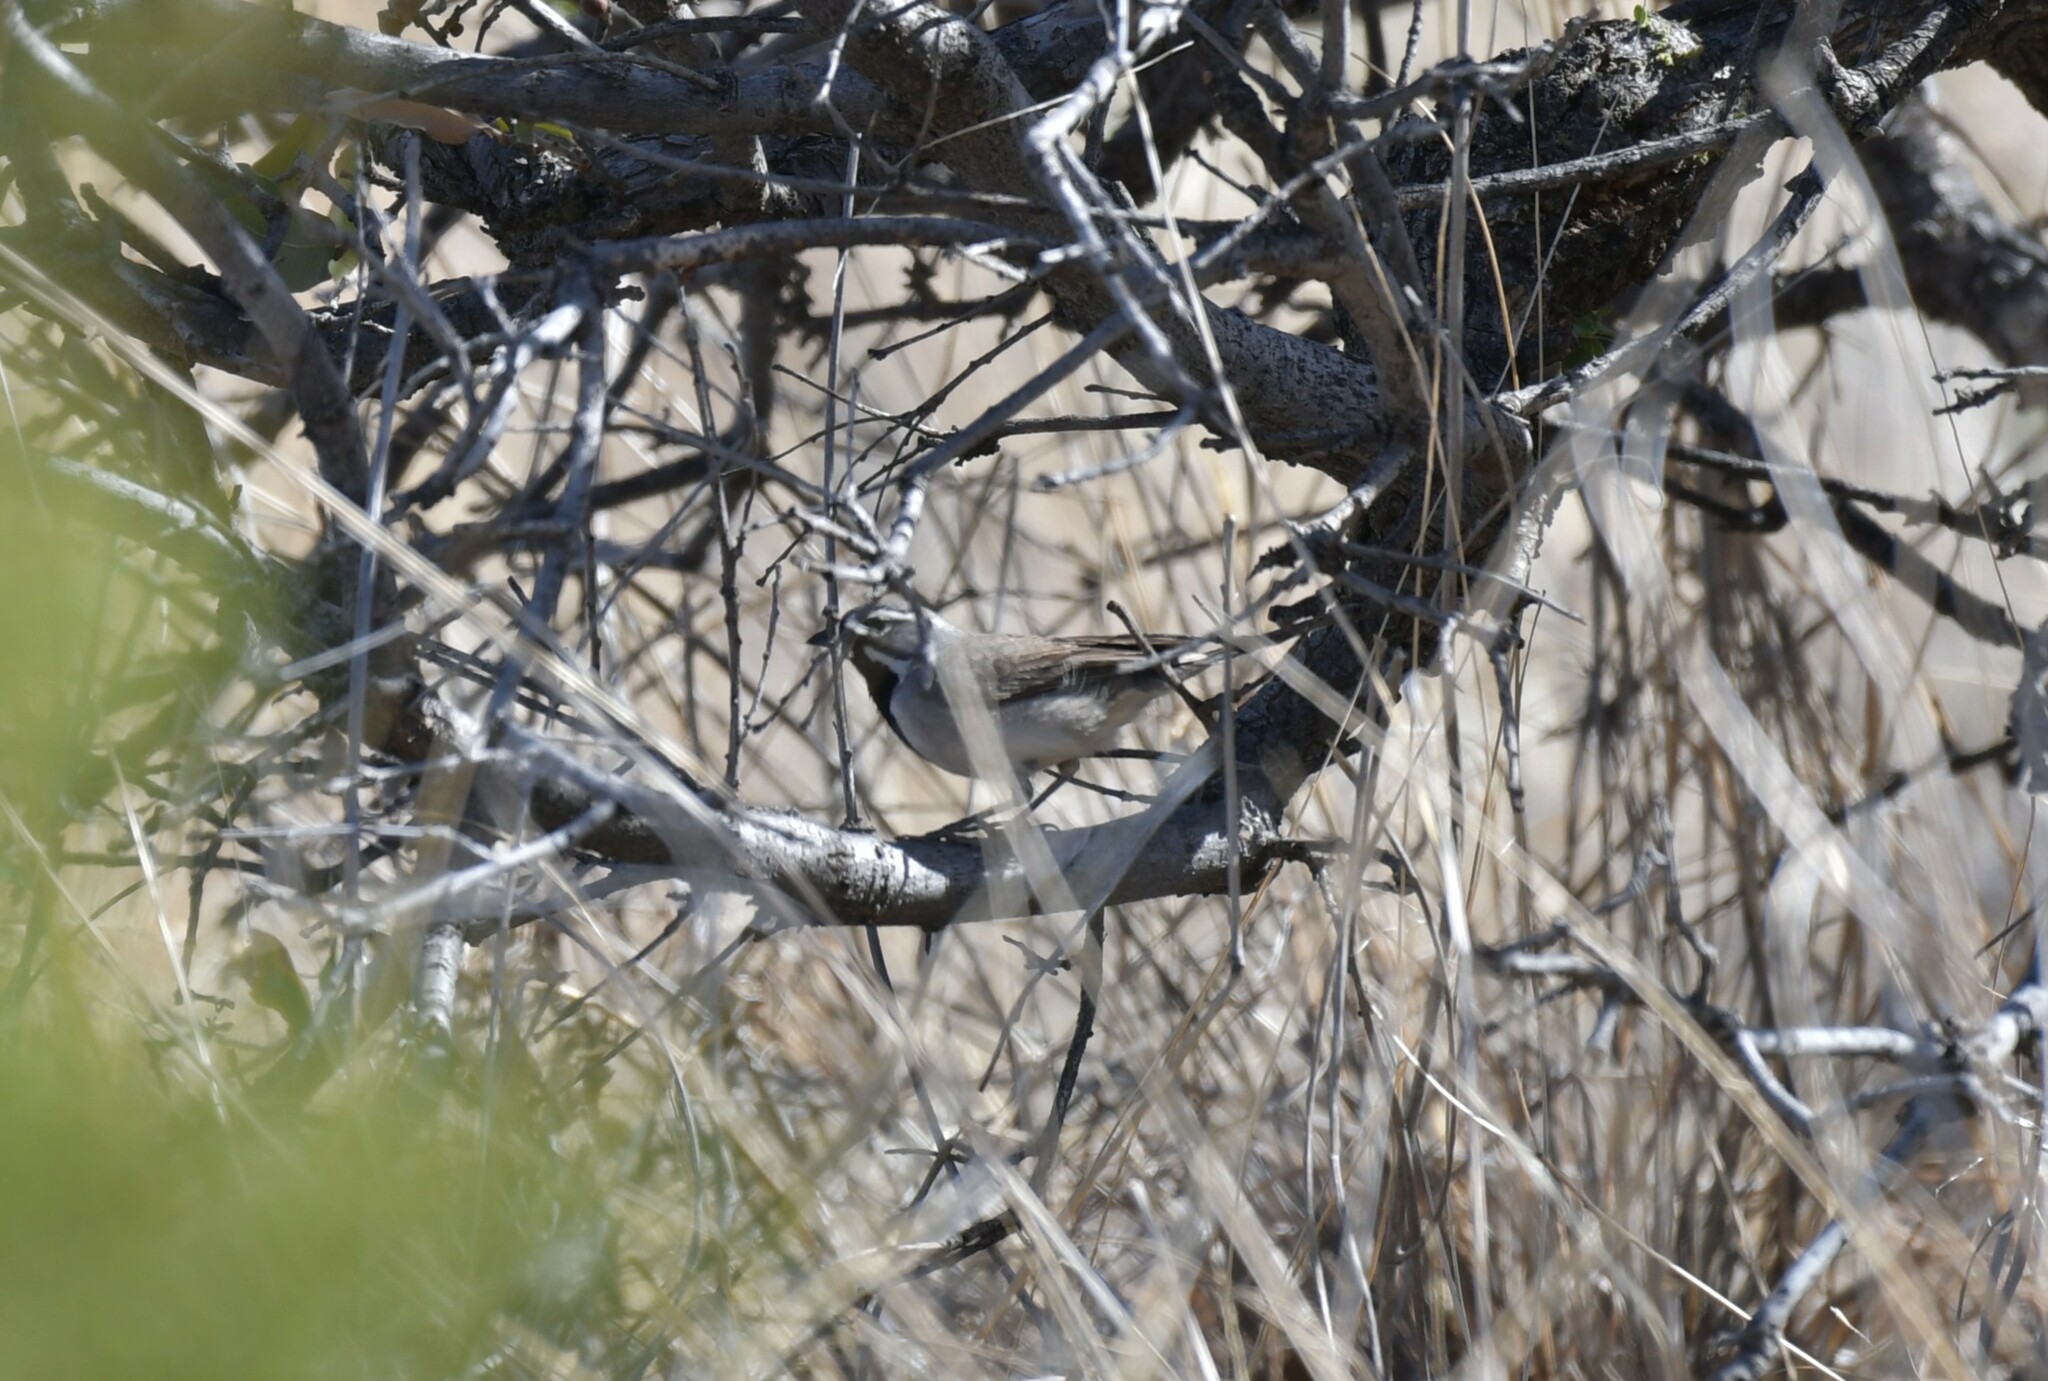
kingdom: Animalia
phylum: Chordata
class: Aves
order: Passeriformes
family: Passerellidae
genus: Amphispiza
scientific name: Amphispiza bilineata
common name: Black-throated sparrow
